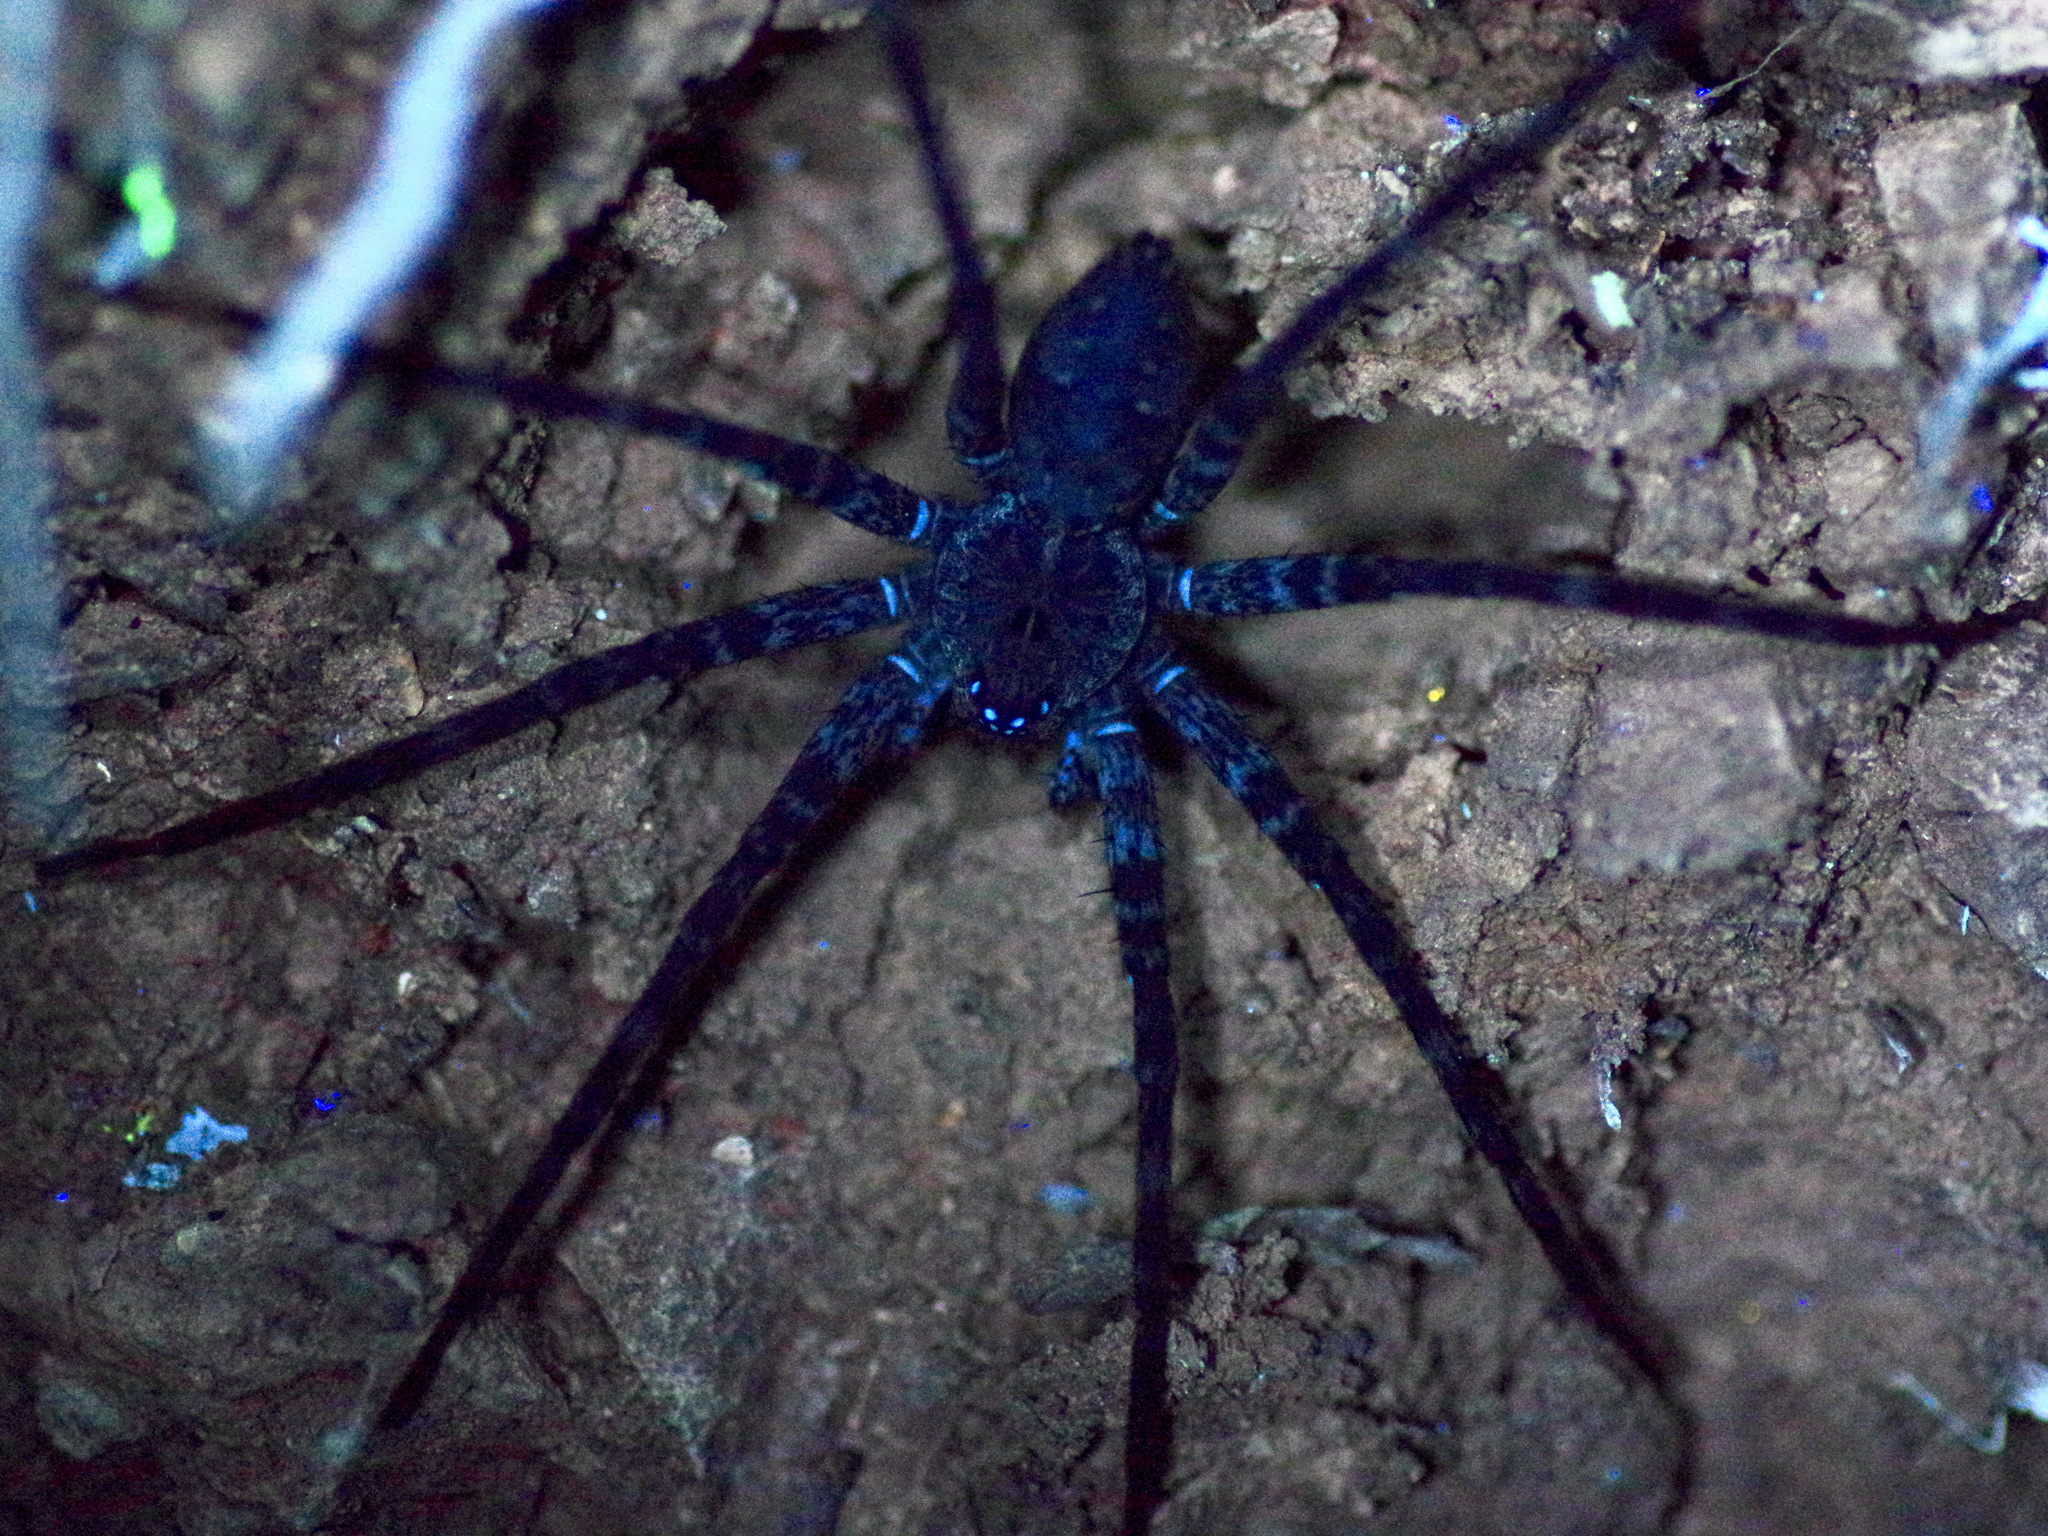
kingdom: Animalia
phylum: Arthropoda
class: Arachnida
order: Araneae
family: Pisauridae
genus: Dolomedes
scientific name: Dolomedes vittatus
